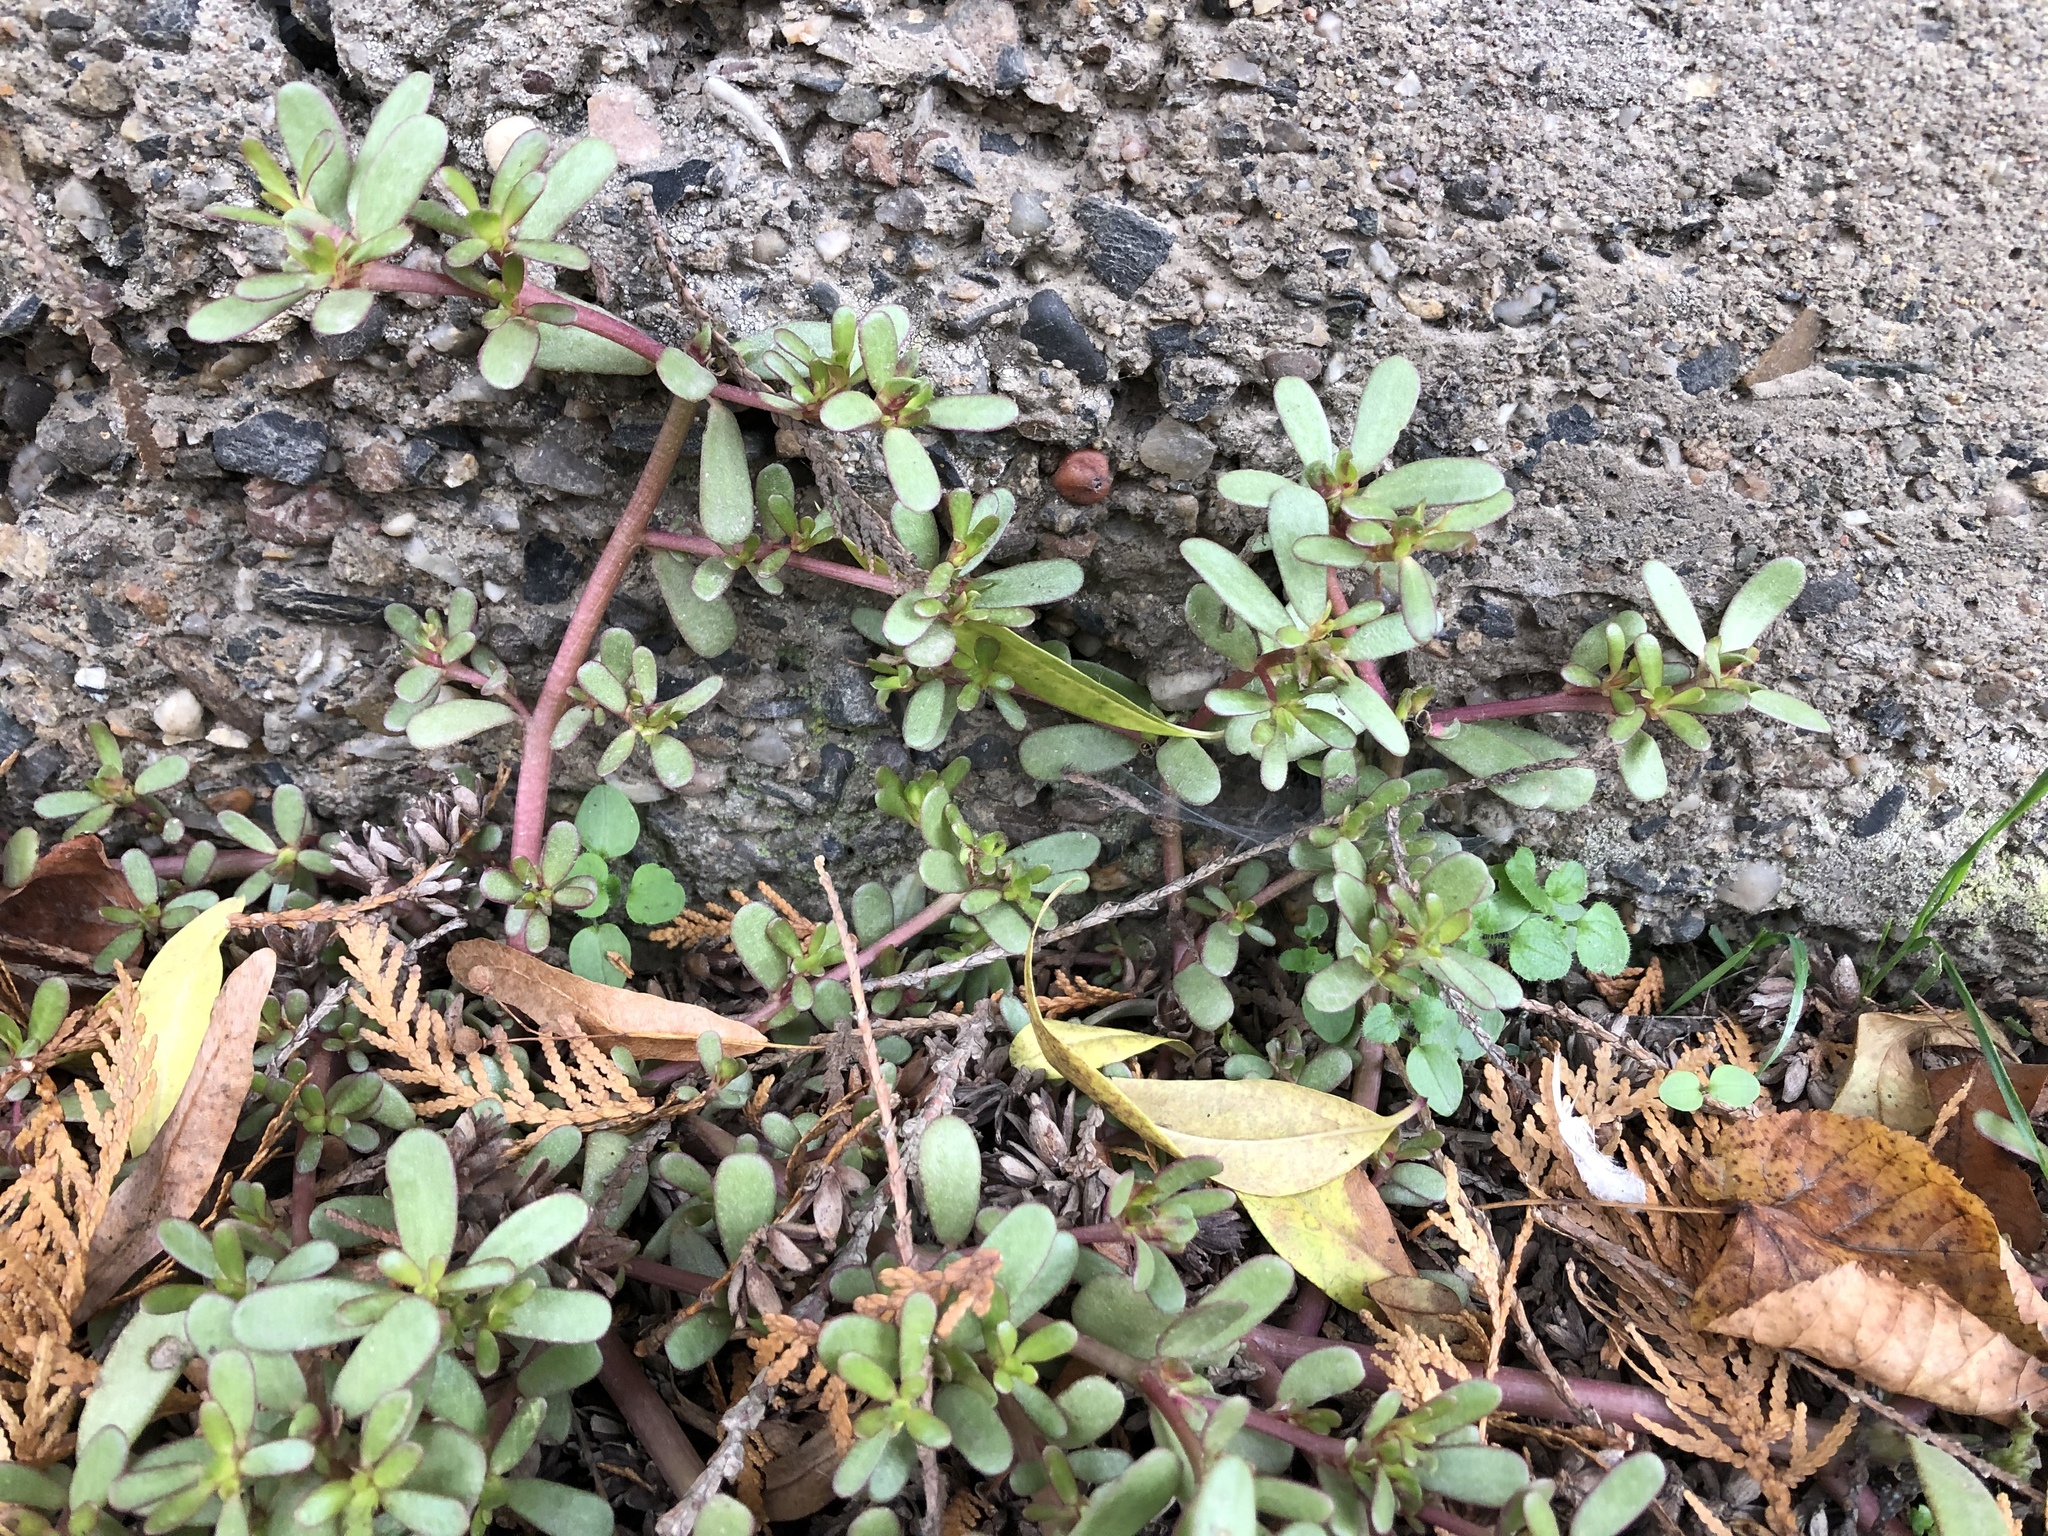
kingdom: Plantae
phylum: Tracheophyta
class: Magnoliopsida
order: Caryophyllales
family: Portulacaceae
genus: Portulaca
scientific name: Portulaca oleracea
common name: Common purslane
